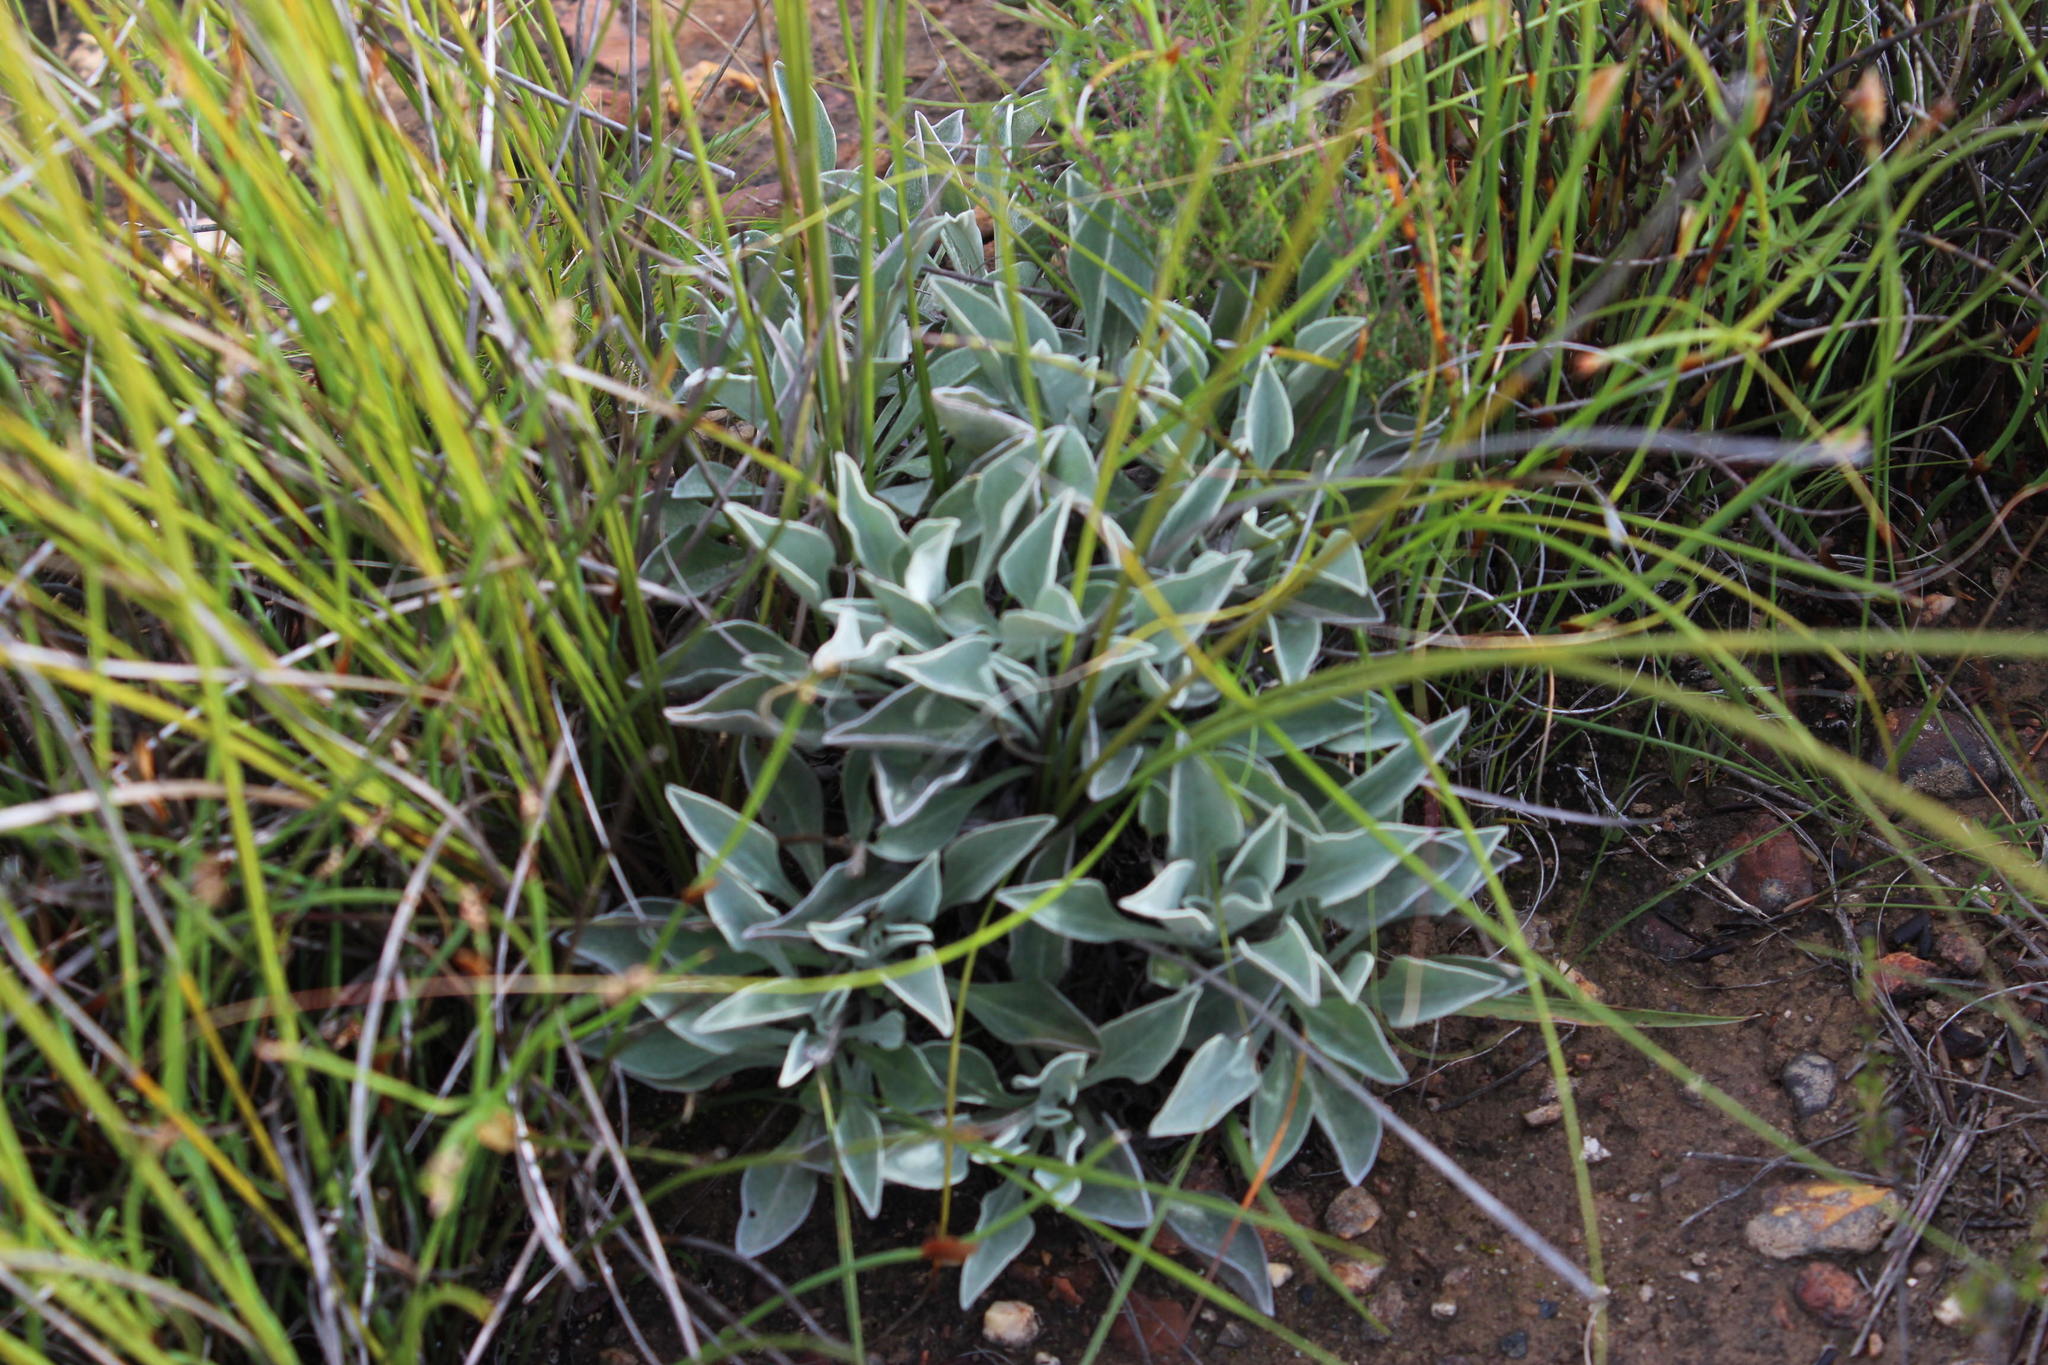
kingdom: Plantae
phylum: Tracheophyta
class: Magnoliopsida
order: Asterales
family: Asteraceae
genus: Osteospermum
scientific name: Osteospermum tomentosum
